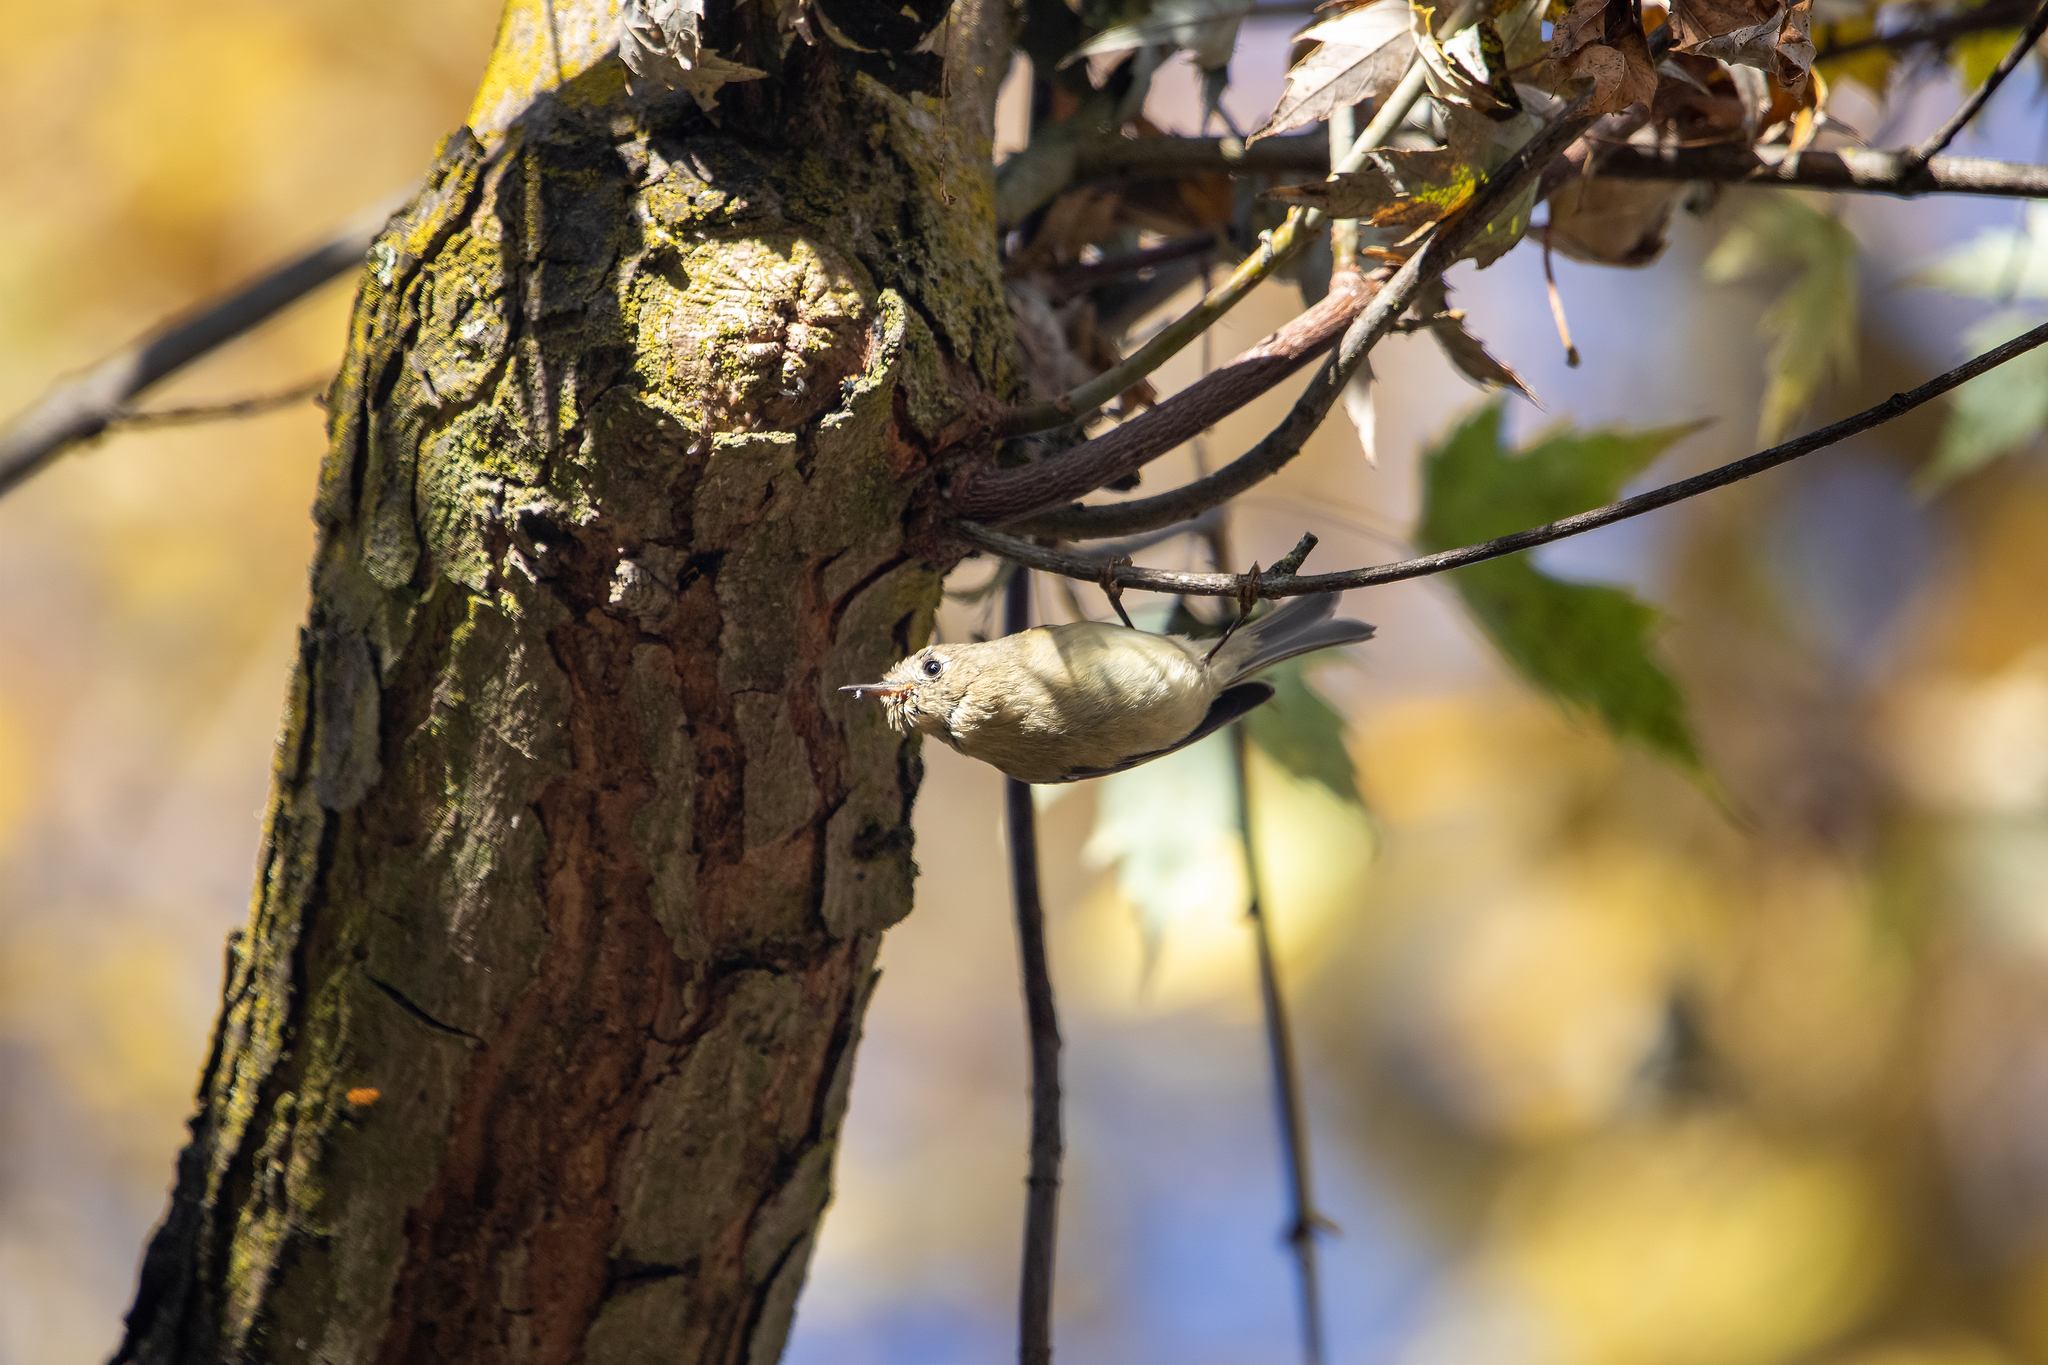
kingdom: Animalia
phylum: Chordata
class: Aves
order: Passeriformes
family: Regulidae
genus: Regulus
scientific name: Regulus calendula
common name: Ruby-crowned kinglet
